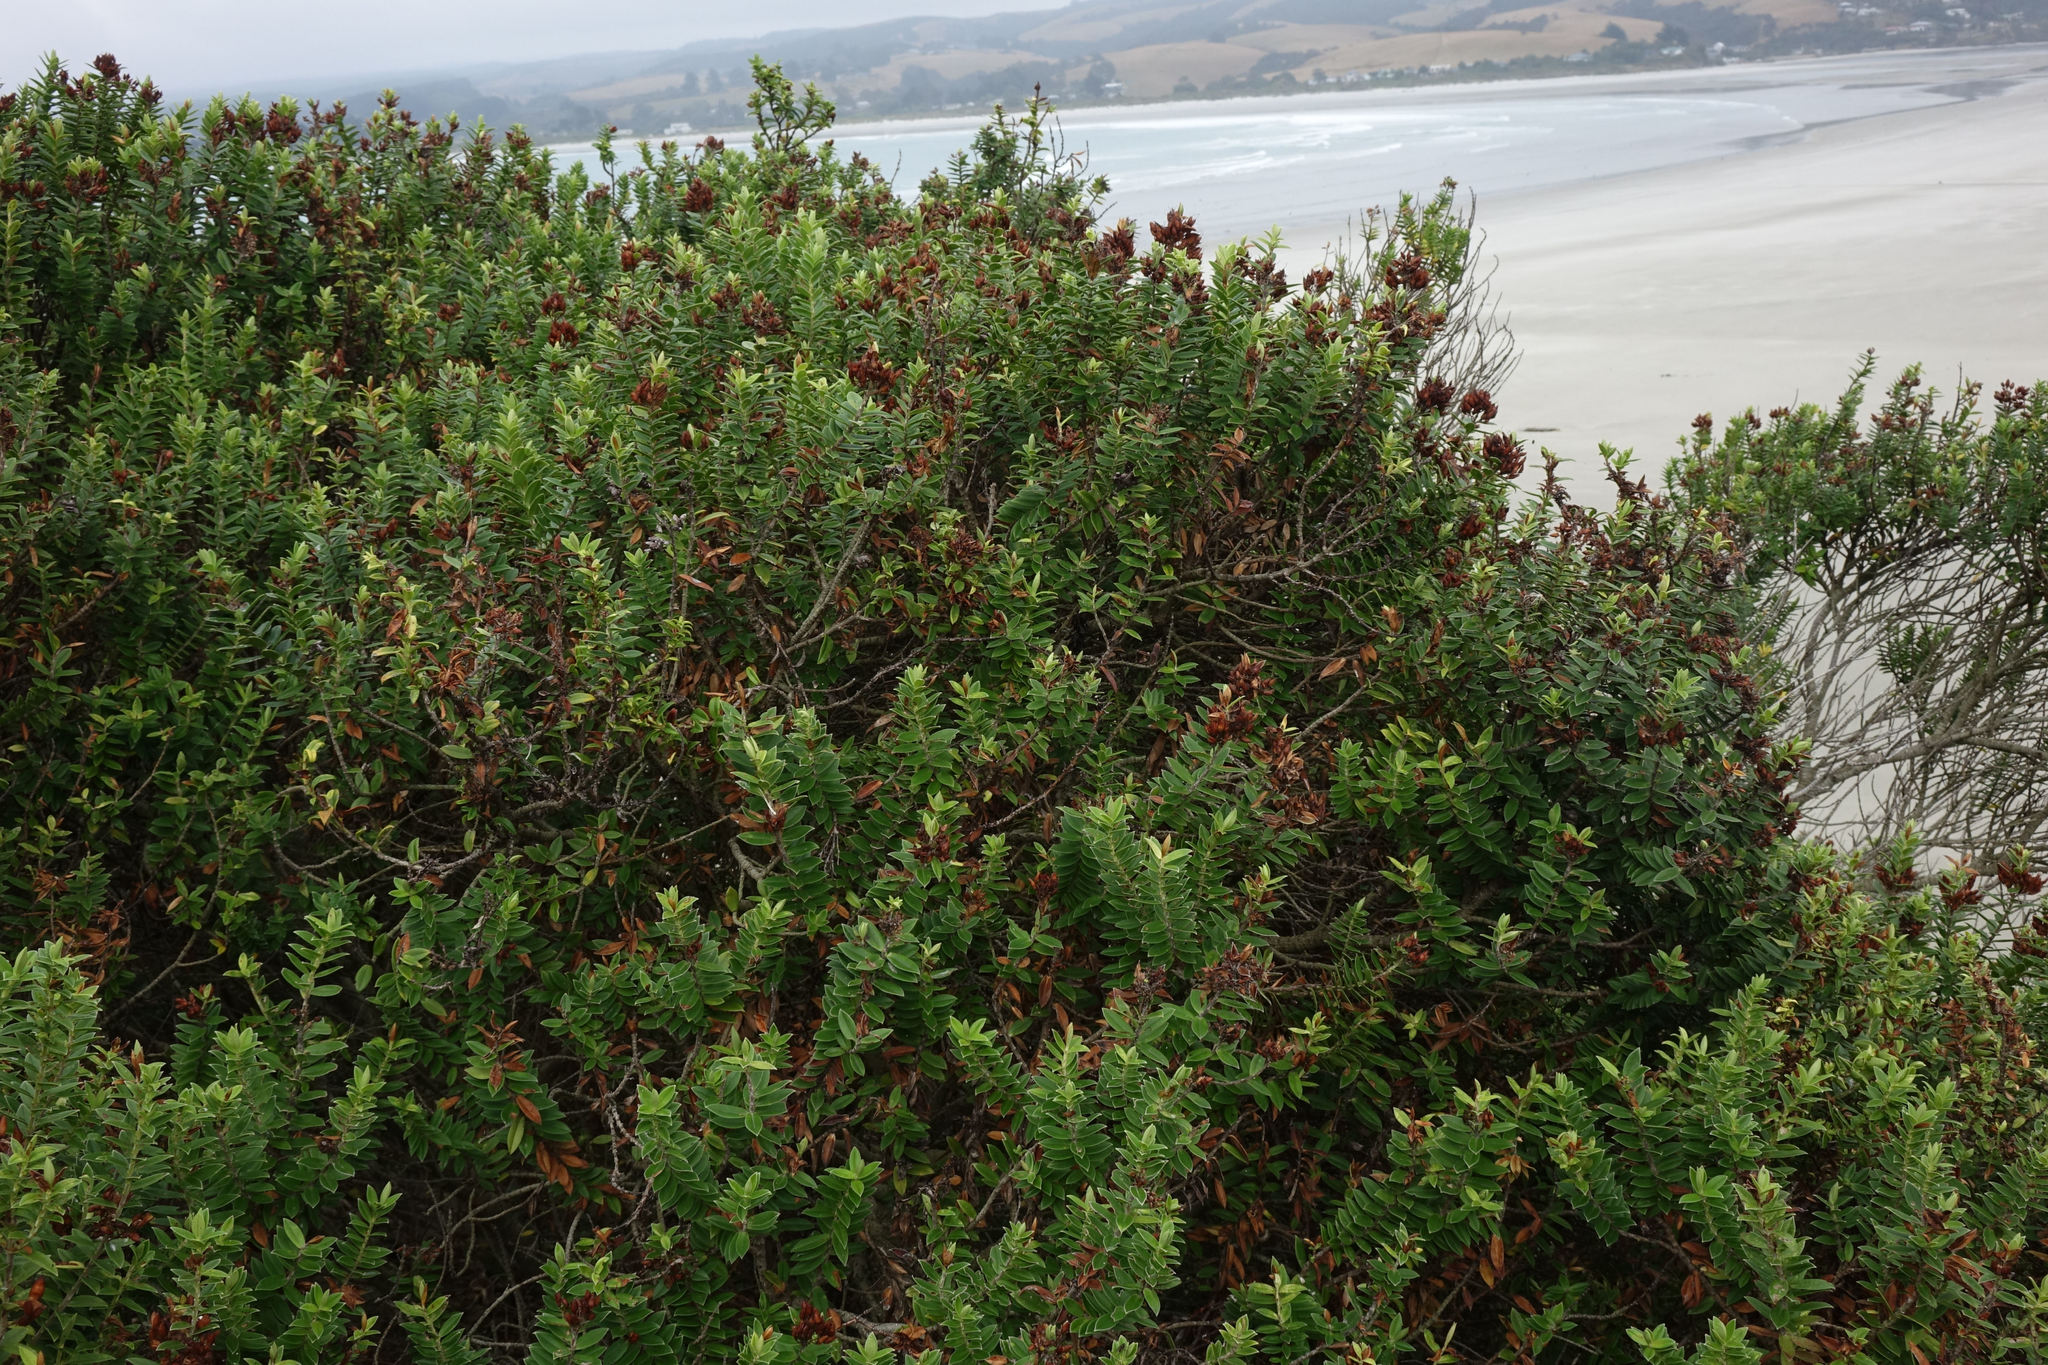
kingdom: Plantae
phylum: Tracheophyta
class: Magnoliopsida
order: Lamiales
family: Plantaginaceae
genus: Veronica
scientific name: Veronica elliptica
